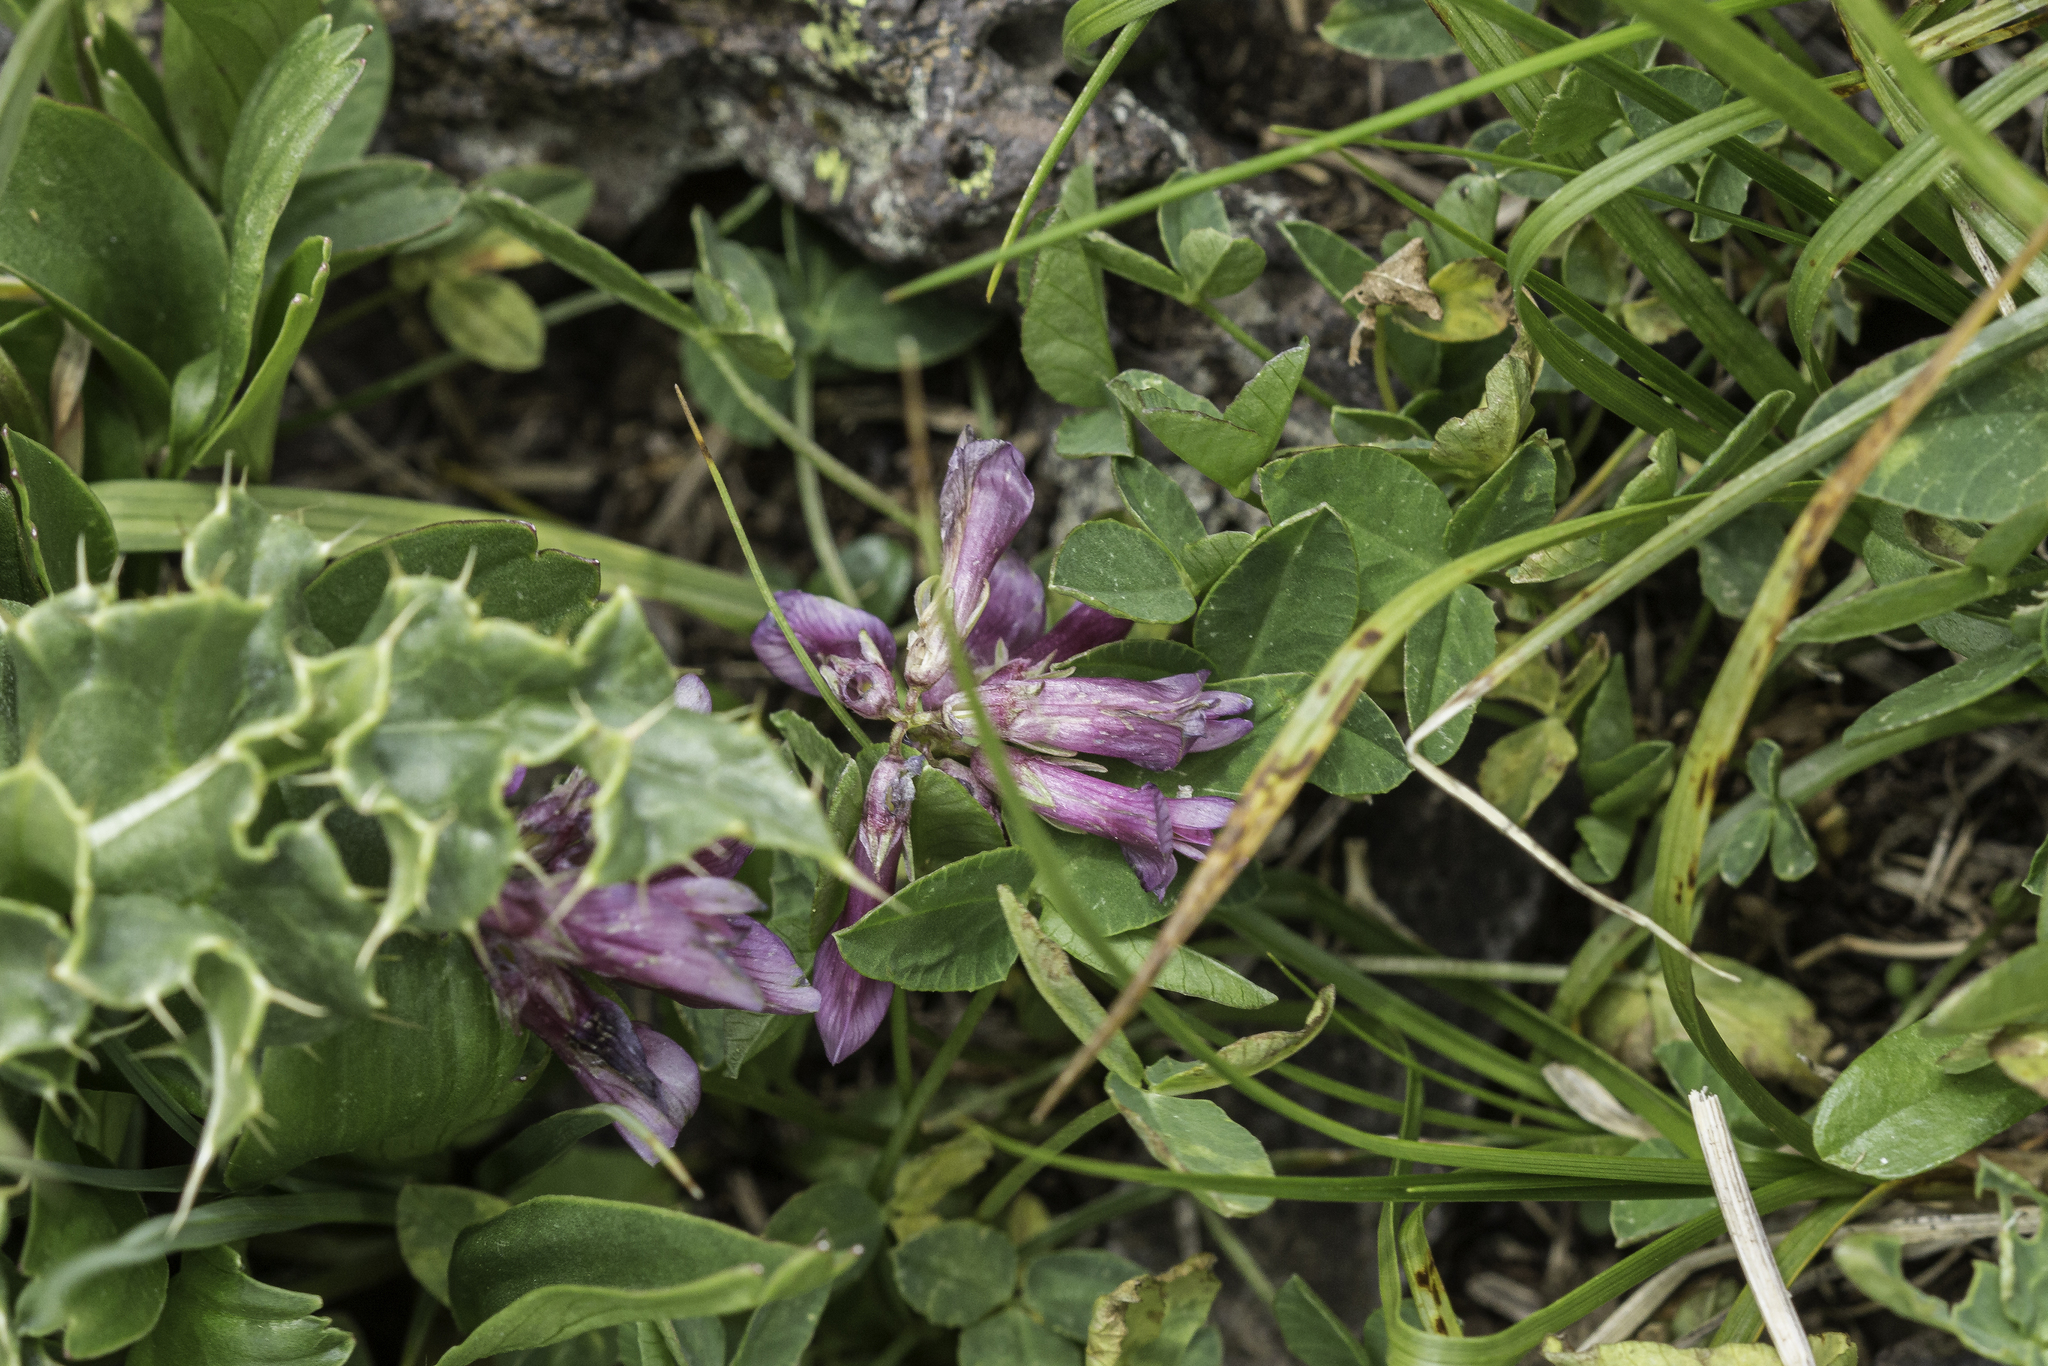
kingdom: Plantae
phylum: Tracheophyta
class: Magnoliopsida
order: Fabales
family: Fabaceae
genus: Trifolium
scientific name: Trifolium brandegeei
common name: Brandegee's clover
